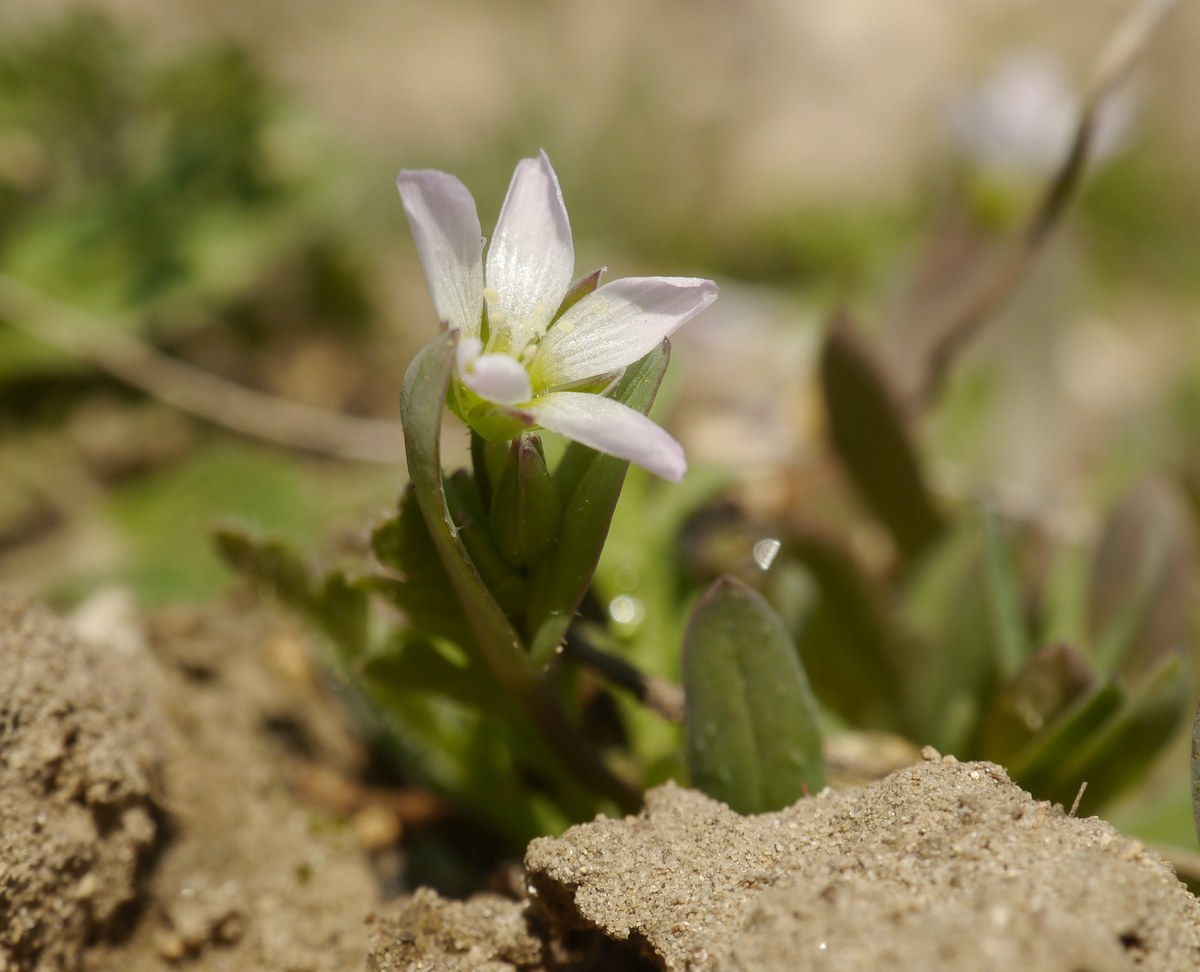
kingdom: Plantae
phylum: Tracheophyta
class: Magnoliopsida
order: Caryophyllales
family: Caryophyllaceae
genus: Holosteum
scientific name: Holosteum umbellatum
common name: Jagged chickweed
